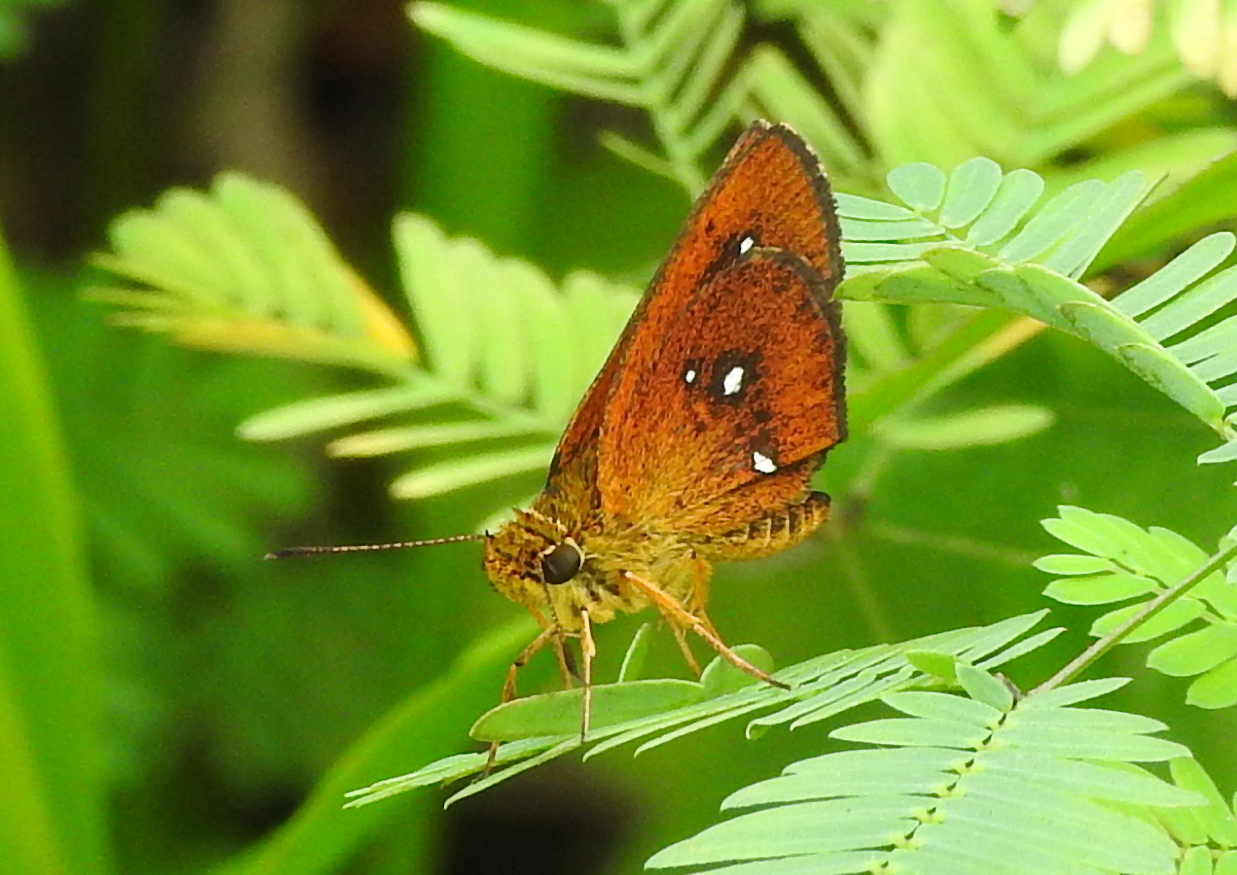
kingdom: Animalia
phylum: Arthropoda
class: Insecta
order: Lepidoptera
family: Hesperiidae
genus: Iambrix
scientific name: Iambrix salsala
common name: Chestnut bob
